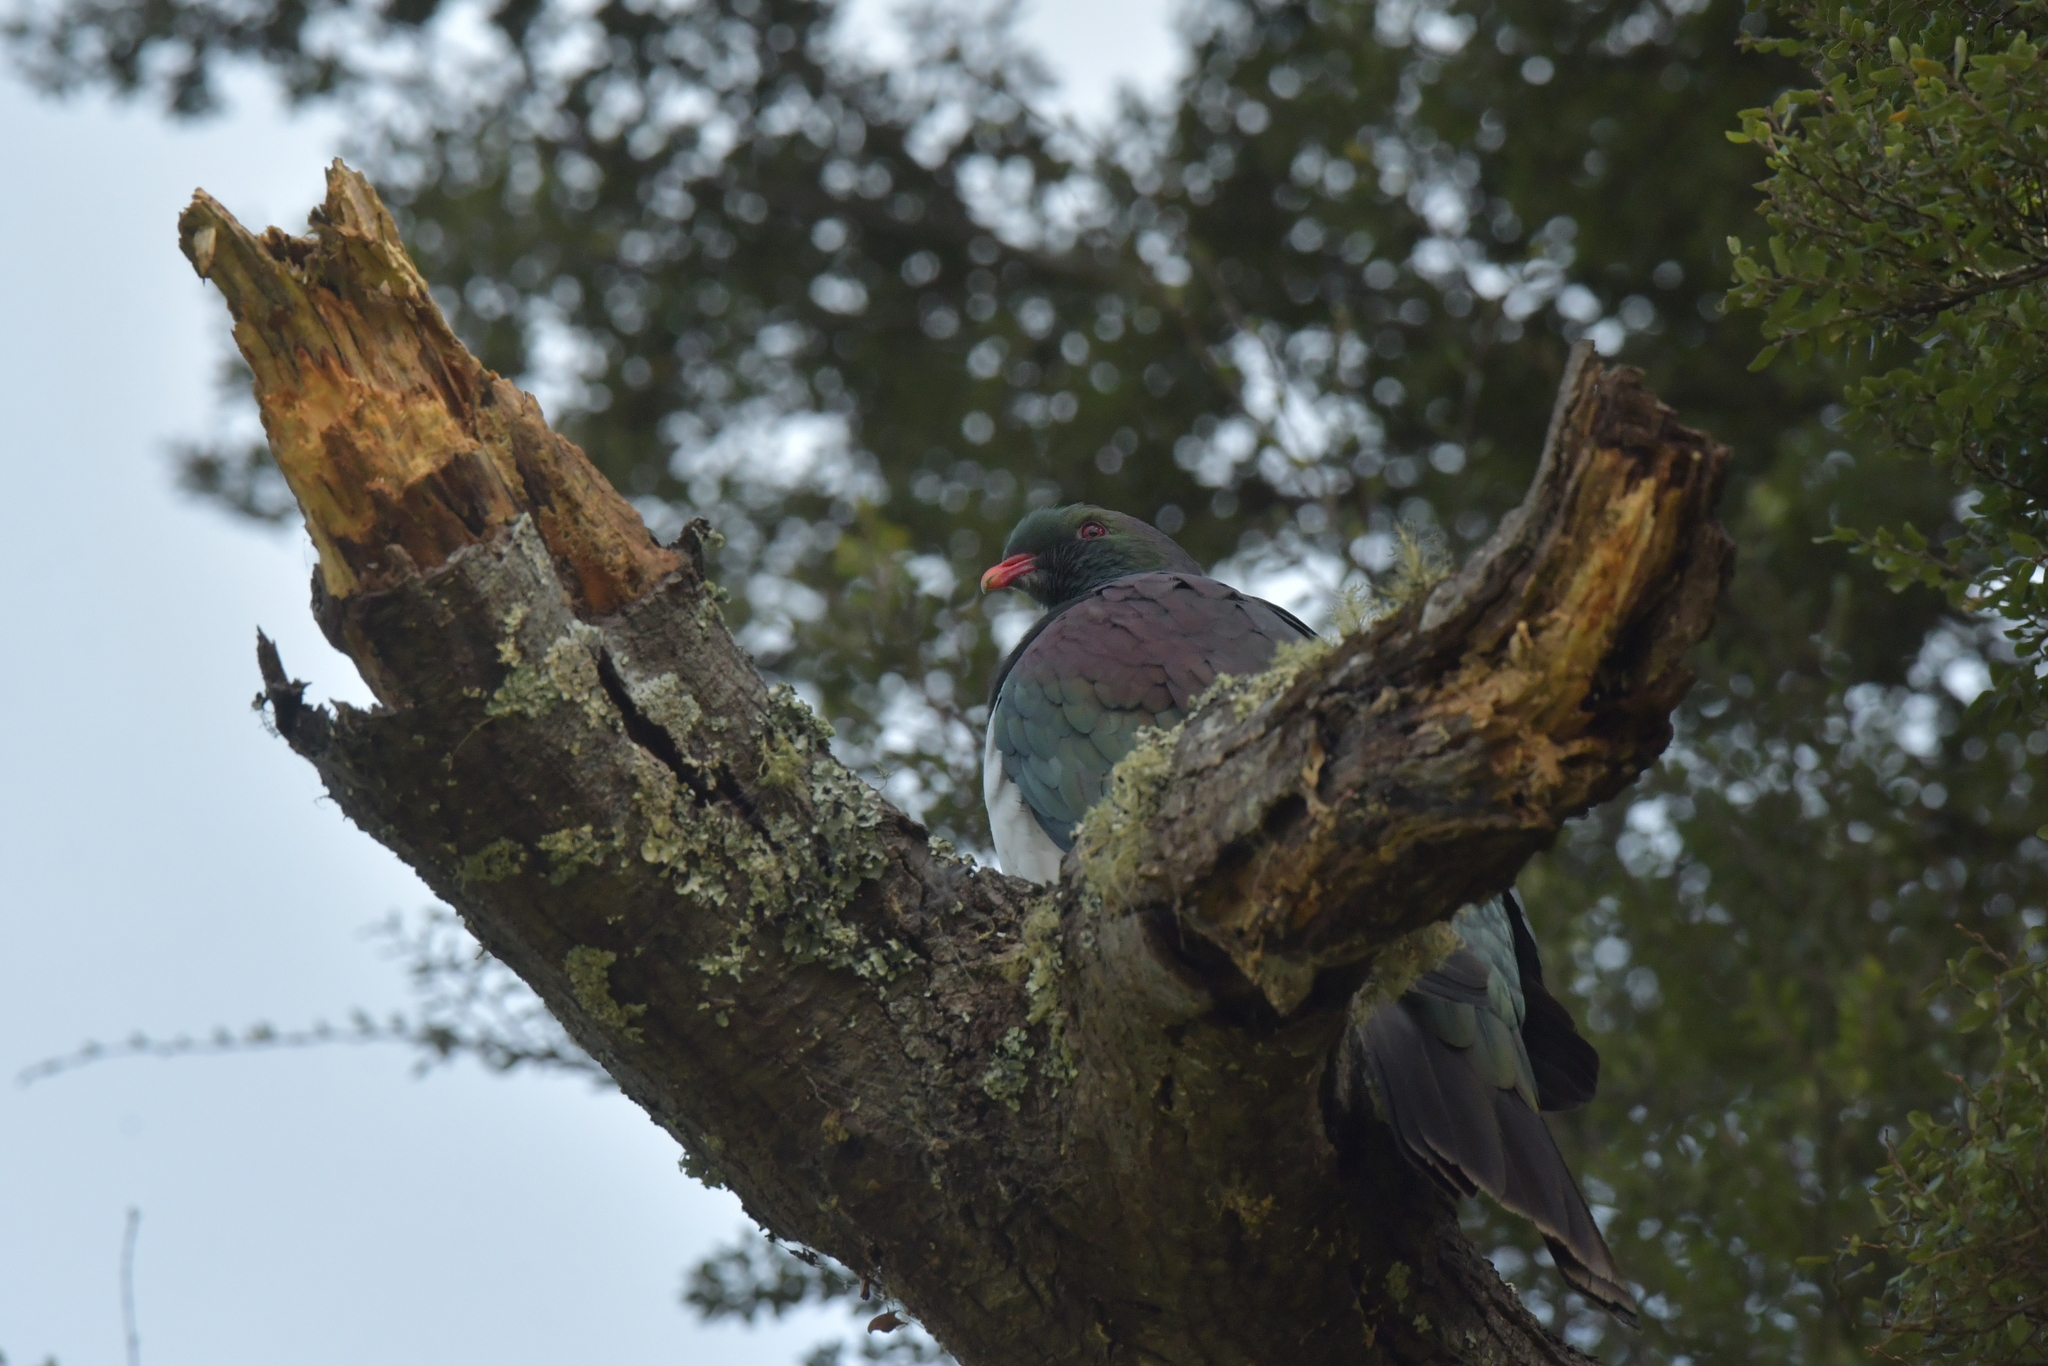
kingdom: Animalia
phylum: Chordata
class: Aves
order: Columbiformes
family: Columbidae
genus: Hemiphaga
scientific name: Hemiphaga novaeseelandiae
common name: New zealand pigeon
